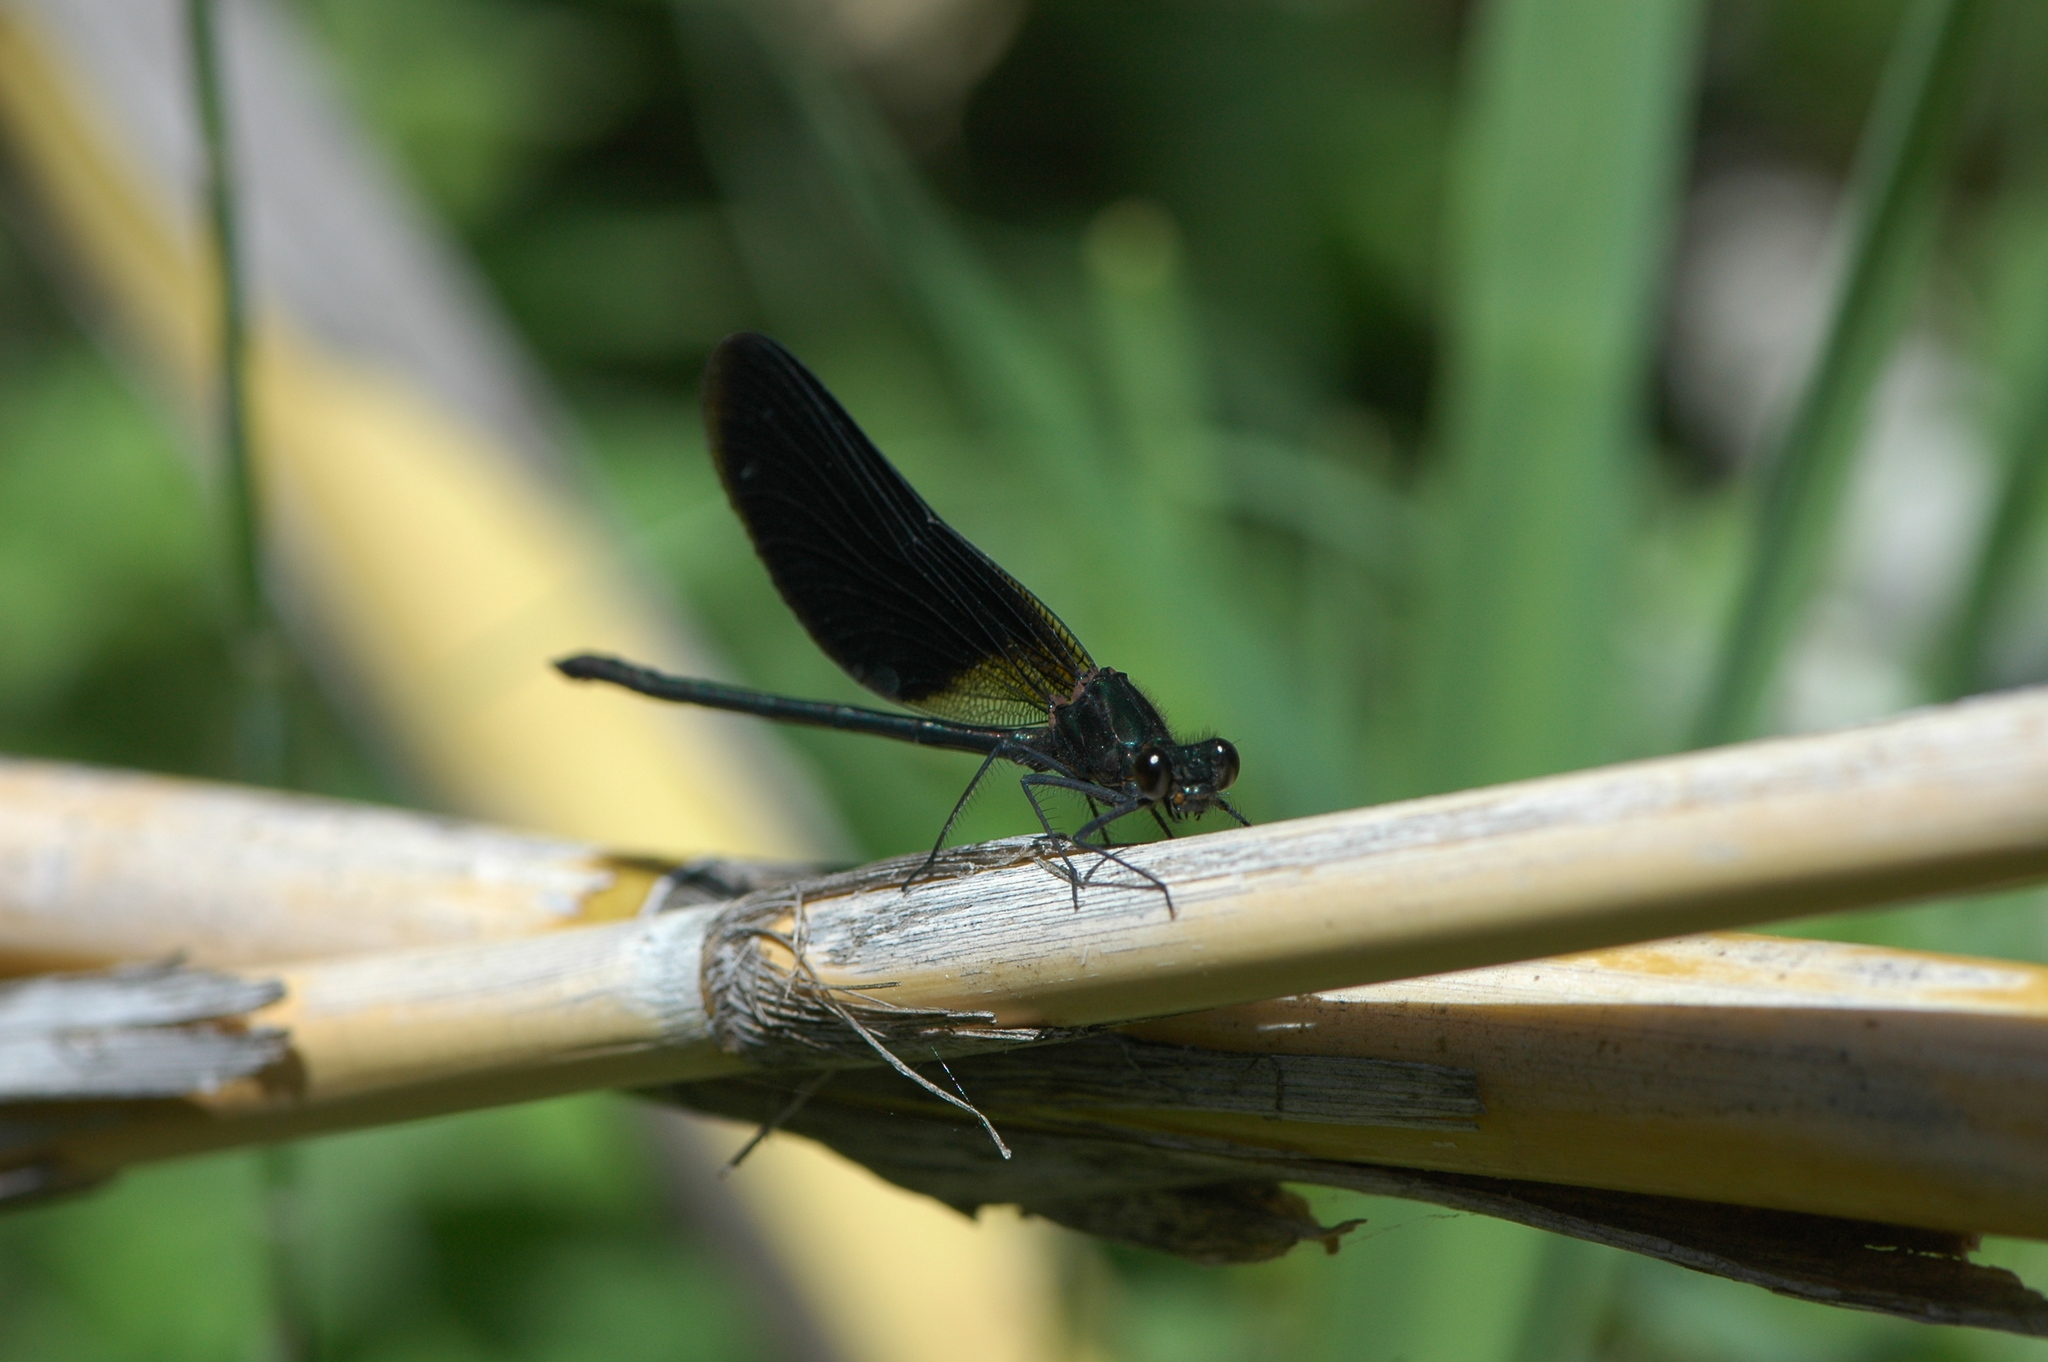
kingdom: Animalia
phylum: Arthropoda
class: Insecta
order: Odonata
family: Calopterygidae
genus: Calopteryx
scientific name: Calopteryx haemorrhoidalis
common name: Copper demoiselle
